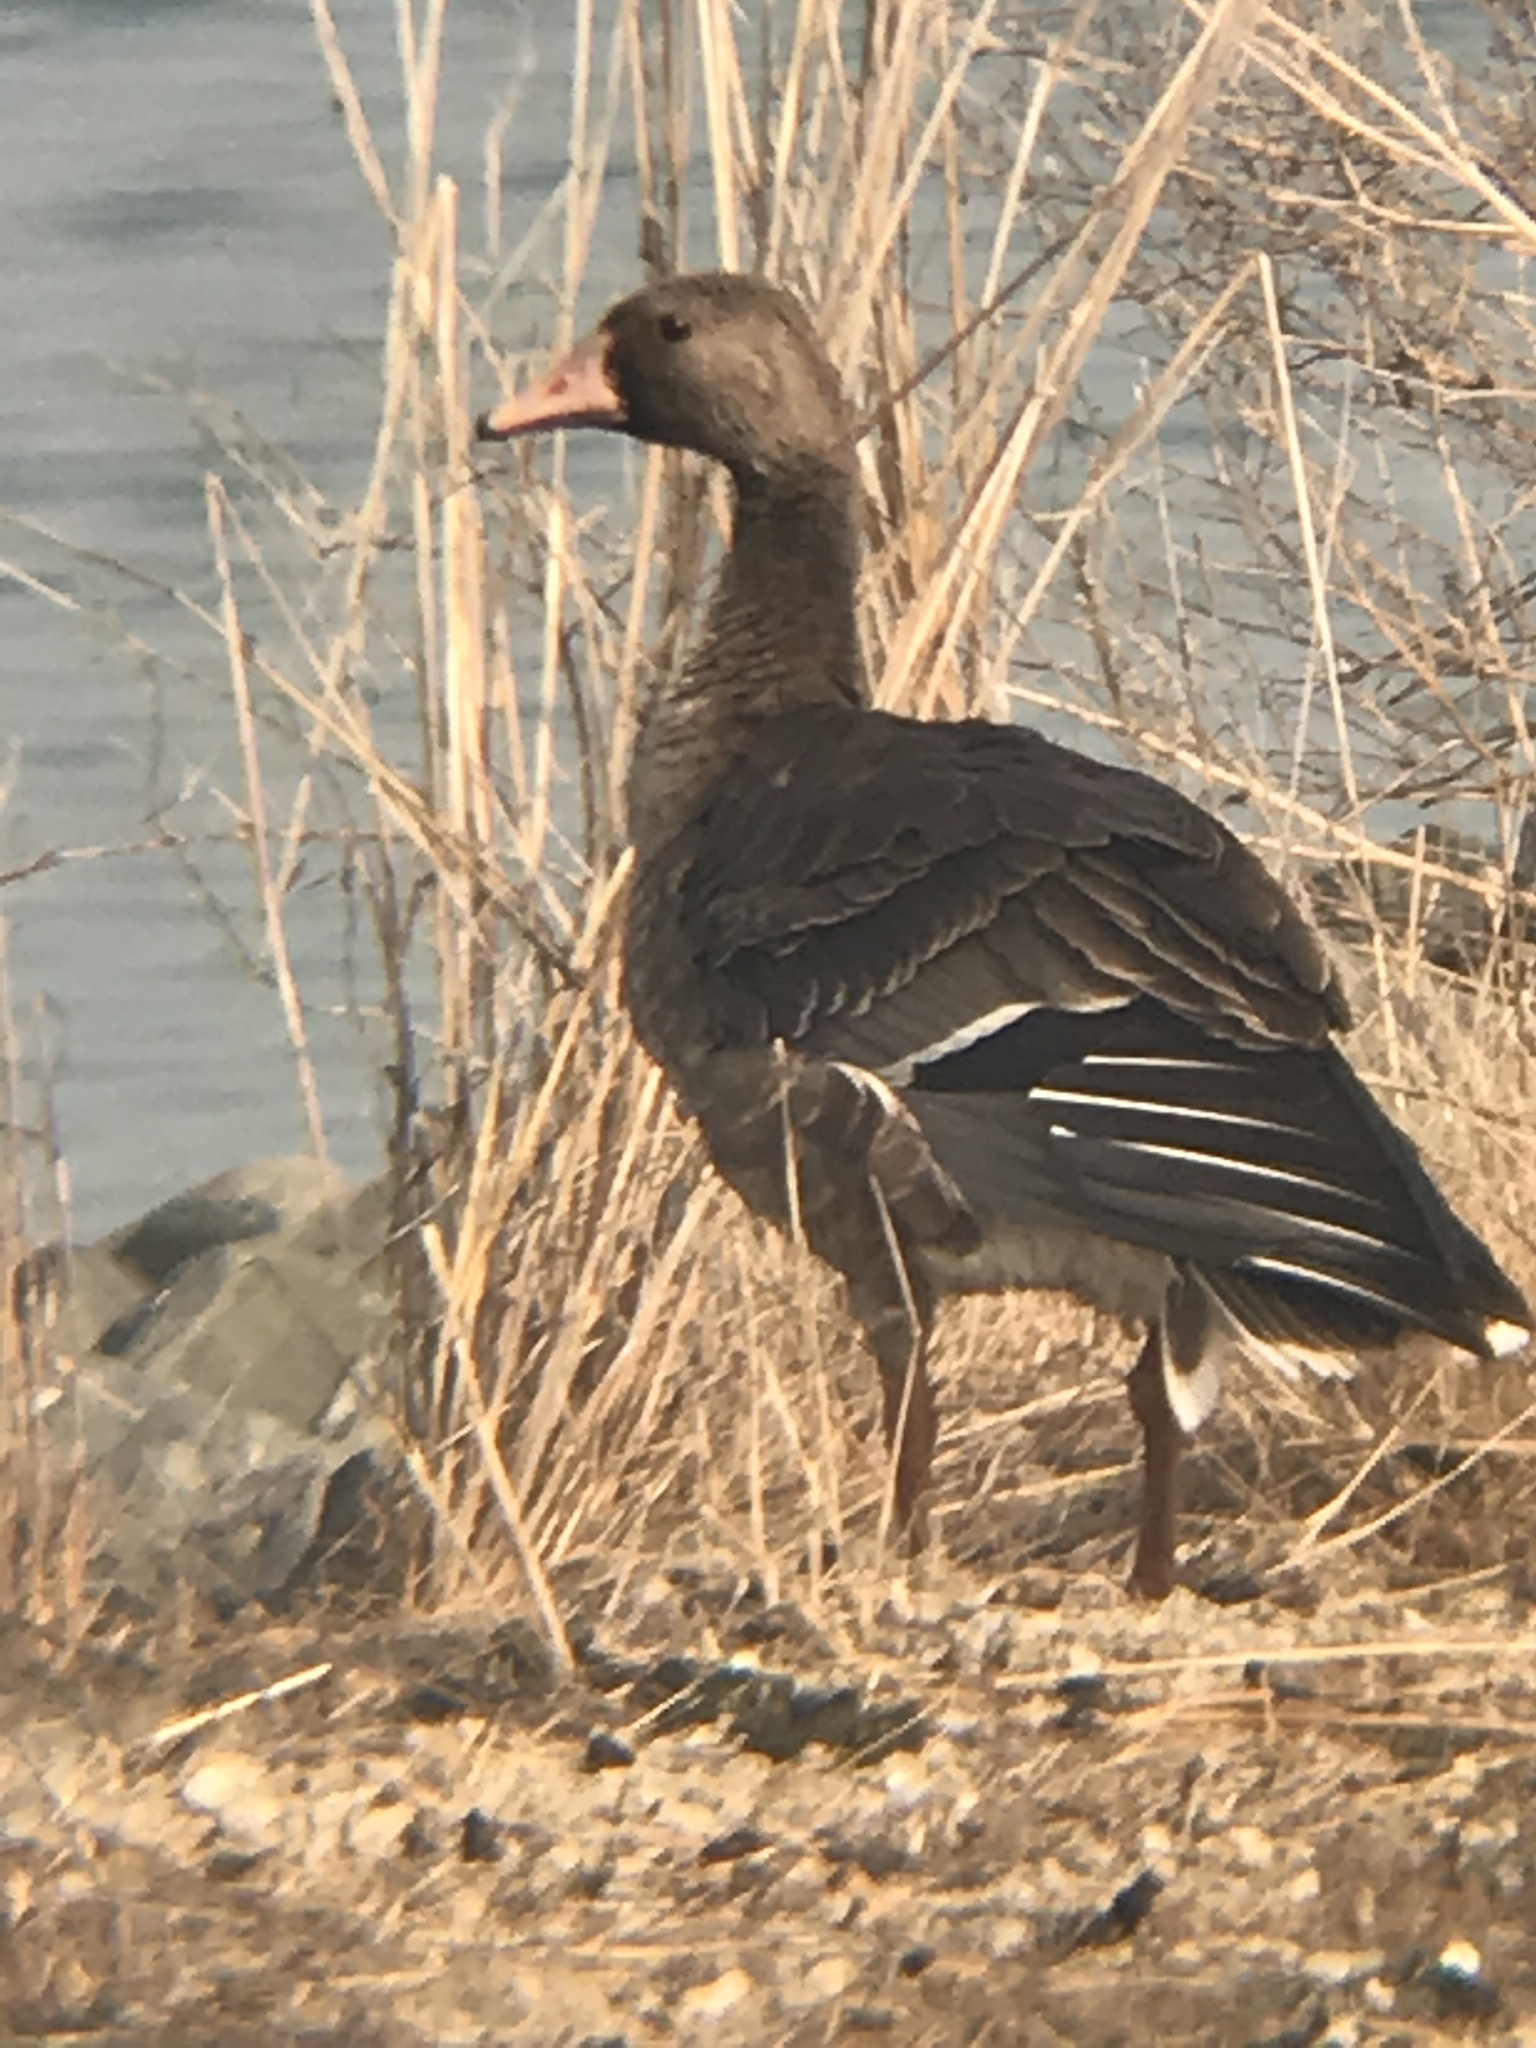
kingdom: Animalia
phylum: Chordata
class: Aves
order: Anseriformes
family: Anatidae
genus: Anser
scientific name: Anser albifrons
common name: Greater white-fronted goose
